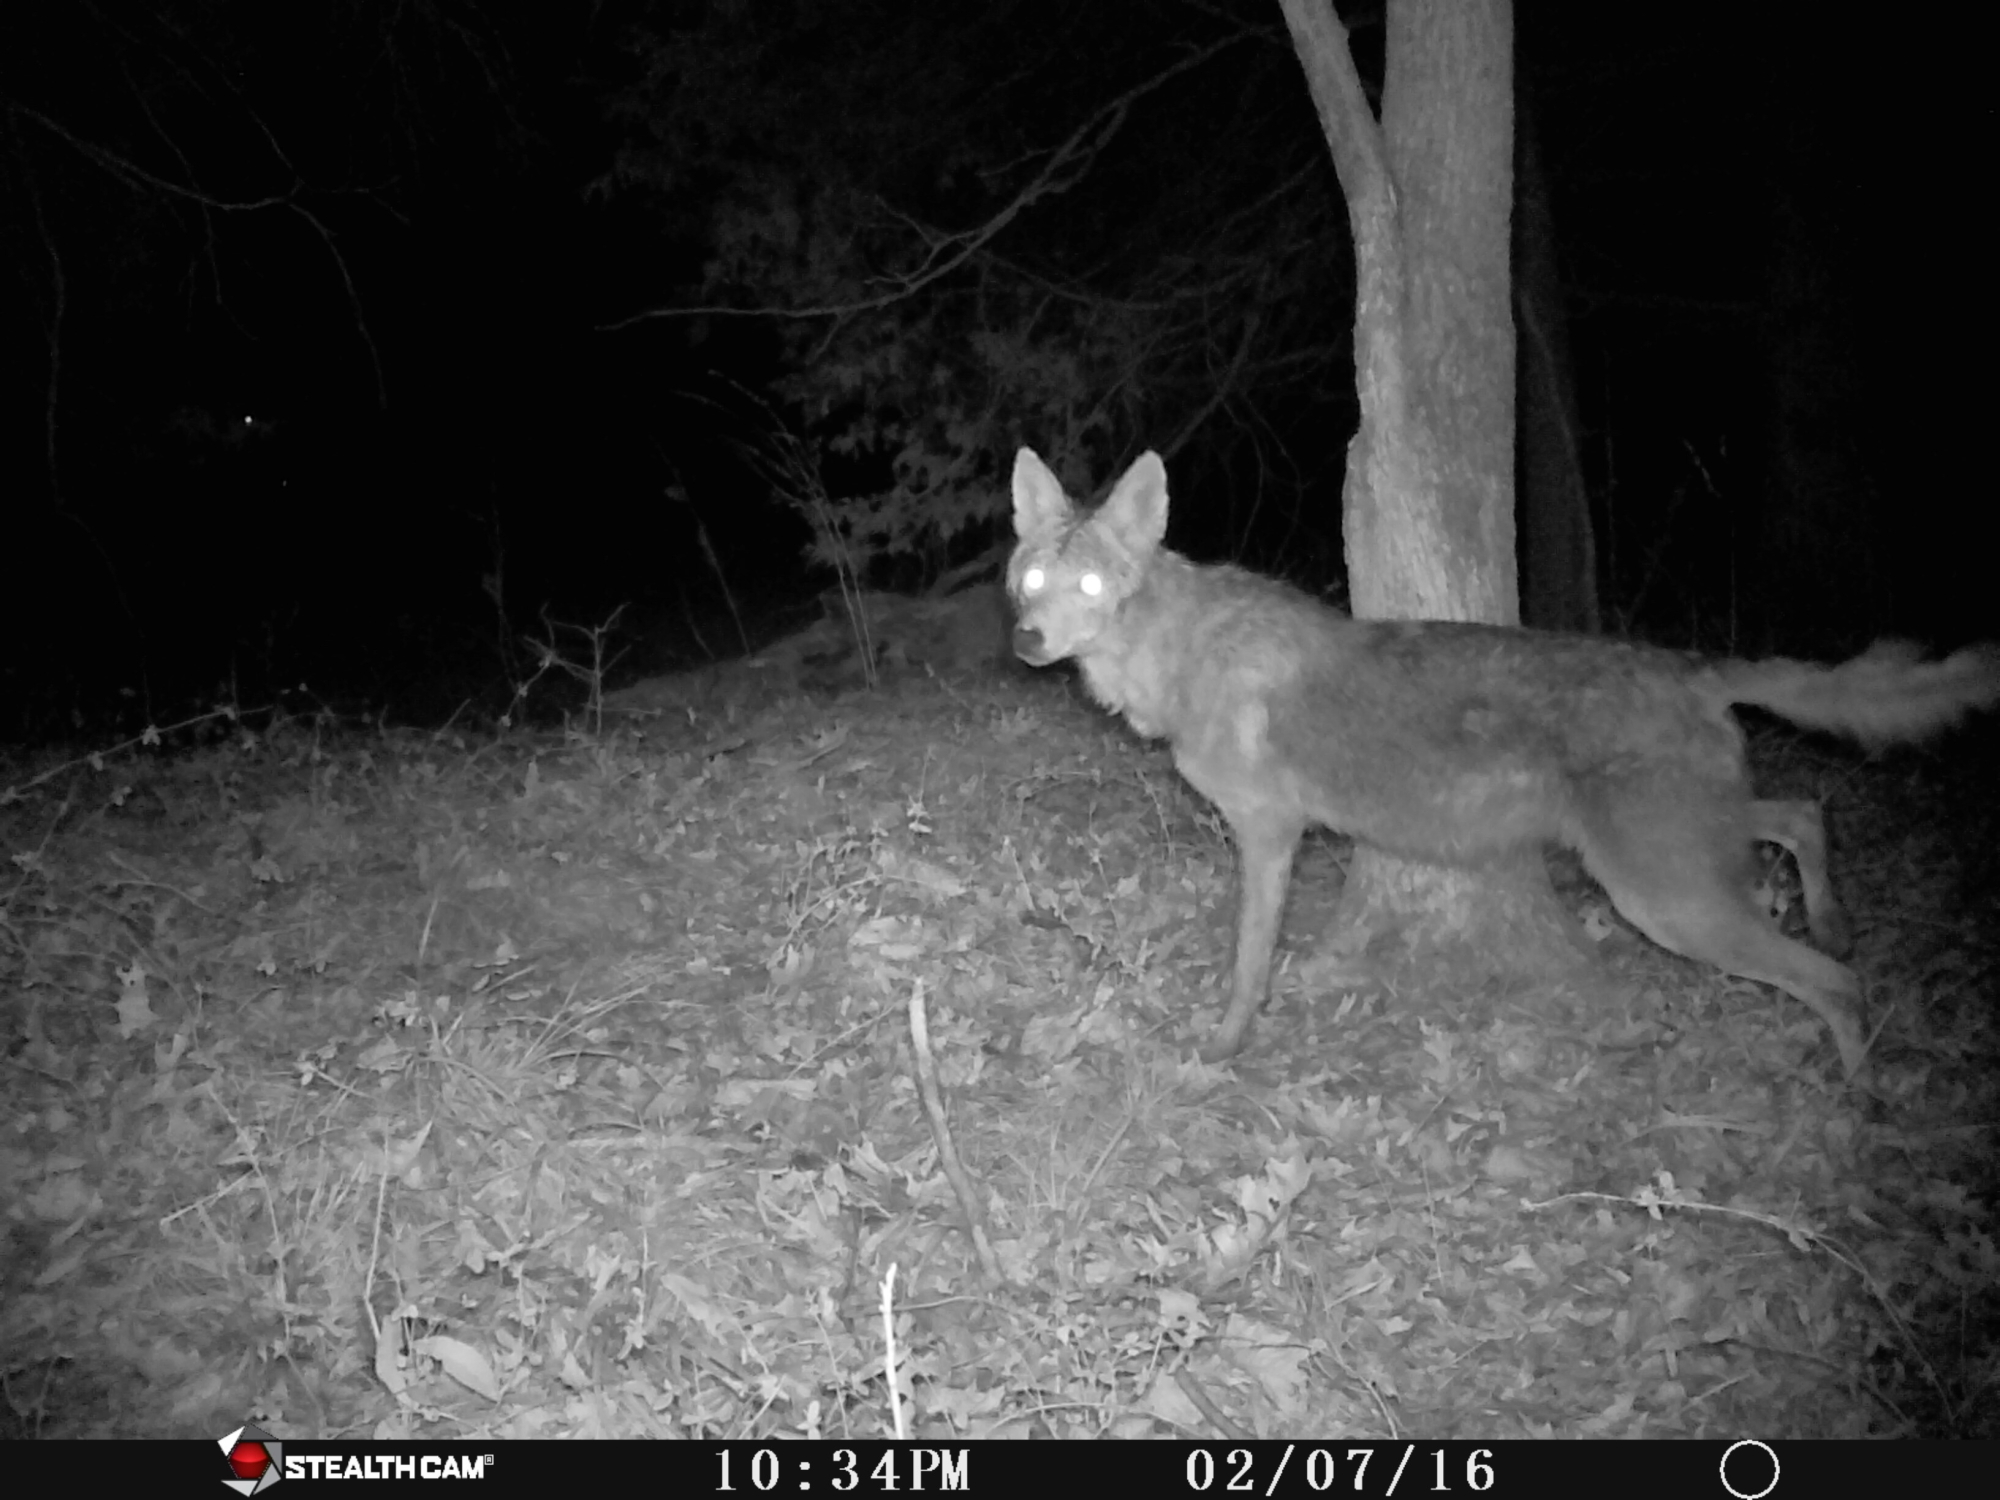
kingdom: Animalia
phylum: Chordata
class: Mammalia
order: Carnivora
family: Canidae
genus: Canis
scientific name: Canis latrans
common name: Coyote
